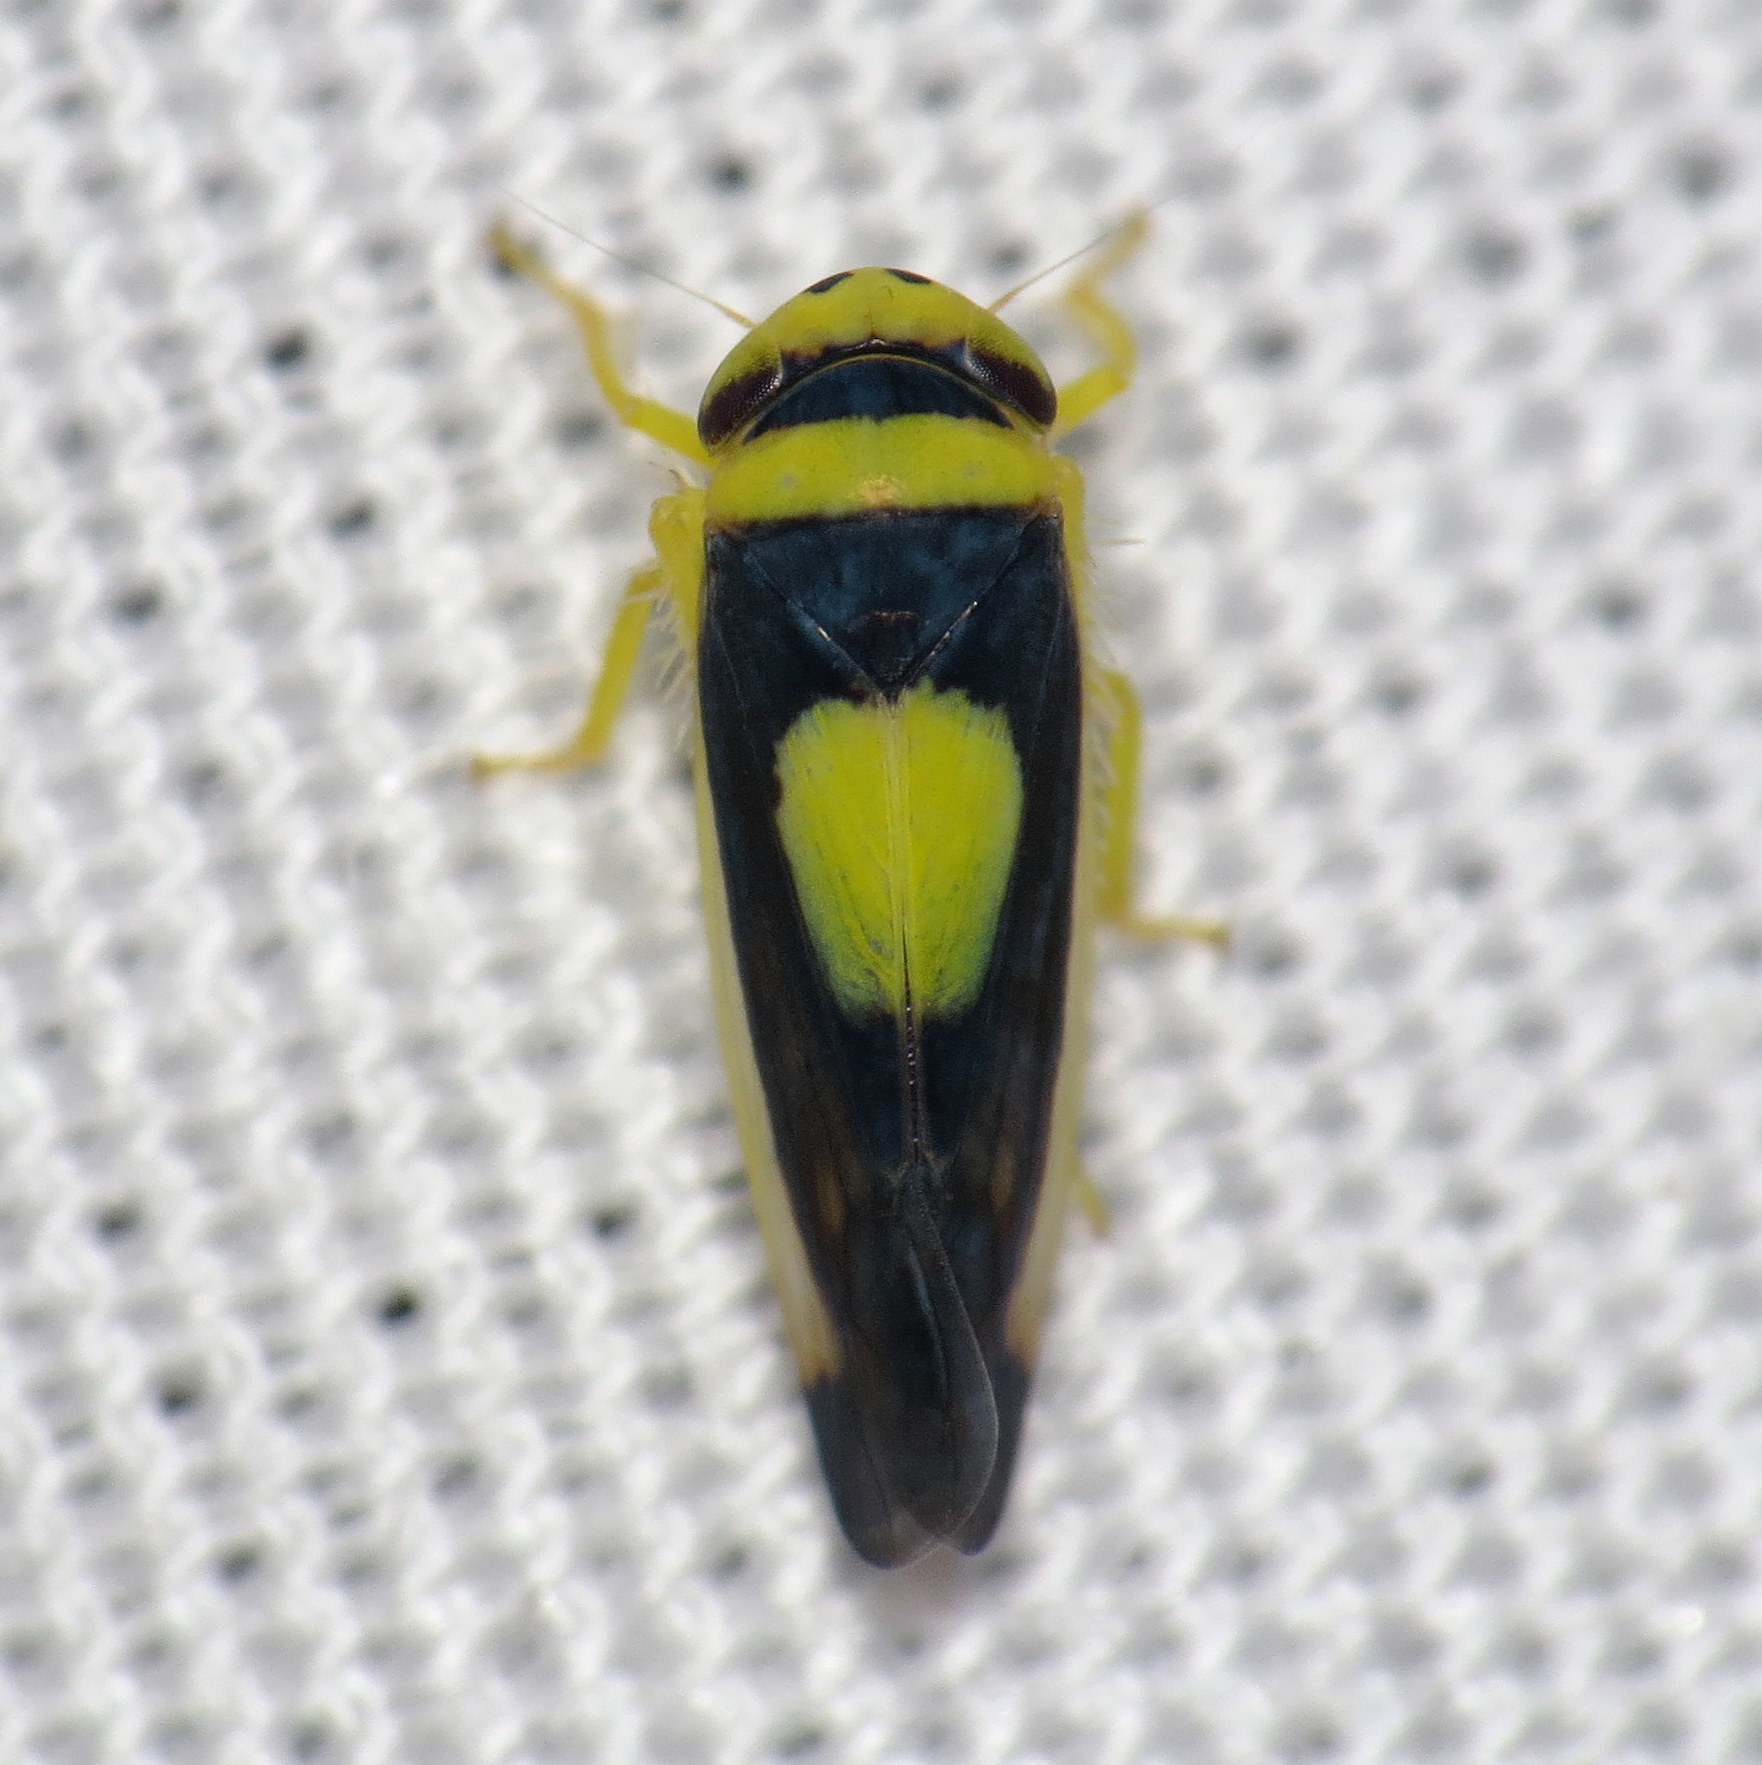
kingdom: Animalia
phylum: Arthropoda
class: Insecta
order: Hemiptera
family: Cicadellidae
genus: Colladonus
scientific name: Colladonus clitellarius
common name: The saddleback leafhopper
